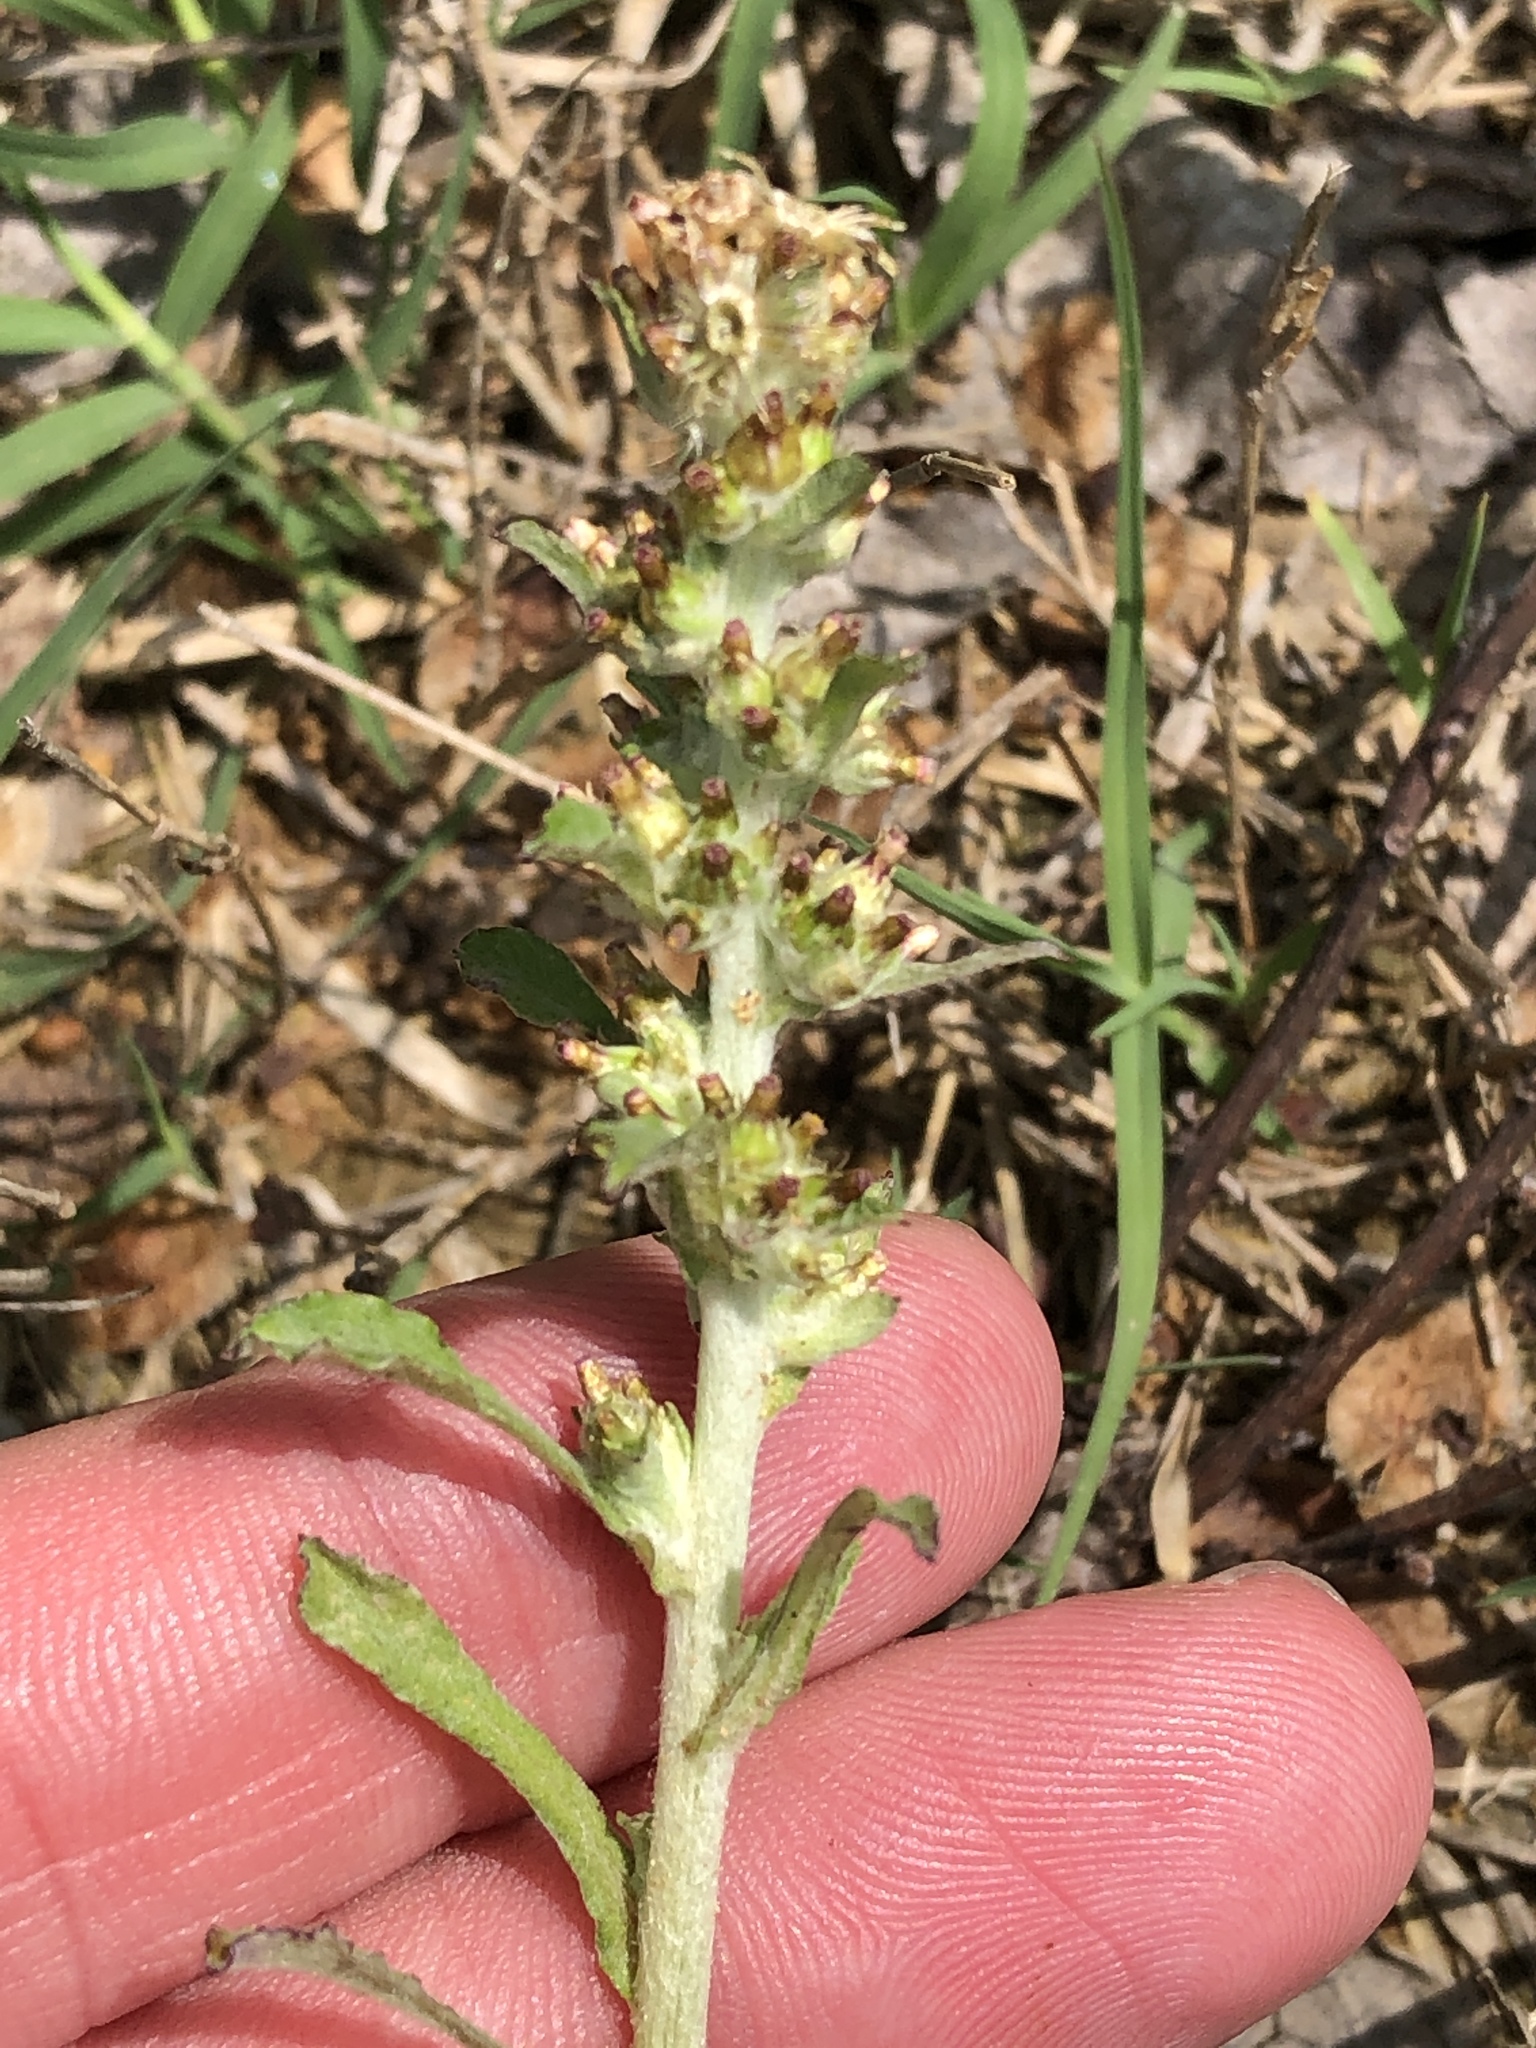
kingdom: Plantae
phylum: Tracheophyta
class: Magnoliopsida
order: Asterales
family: Asteraceae
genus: Gamochaeta
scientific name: Gamochaeta pensylvanica
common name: Pennsylvania everlasting
